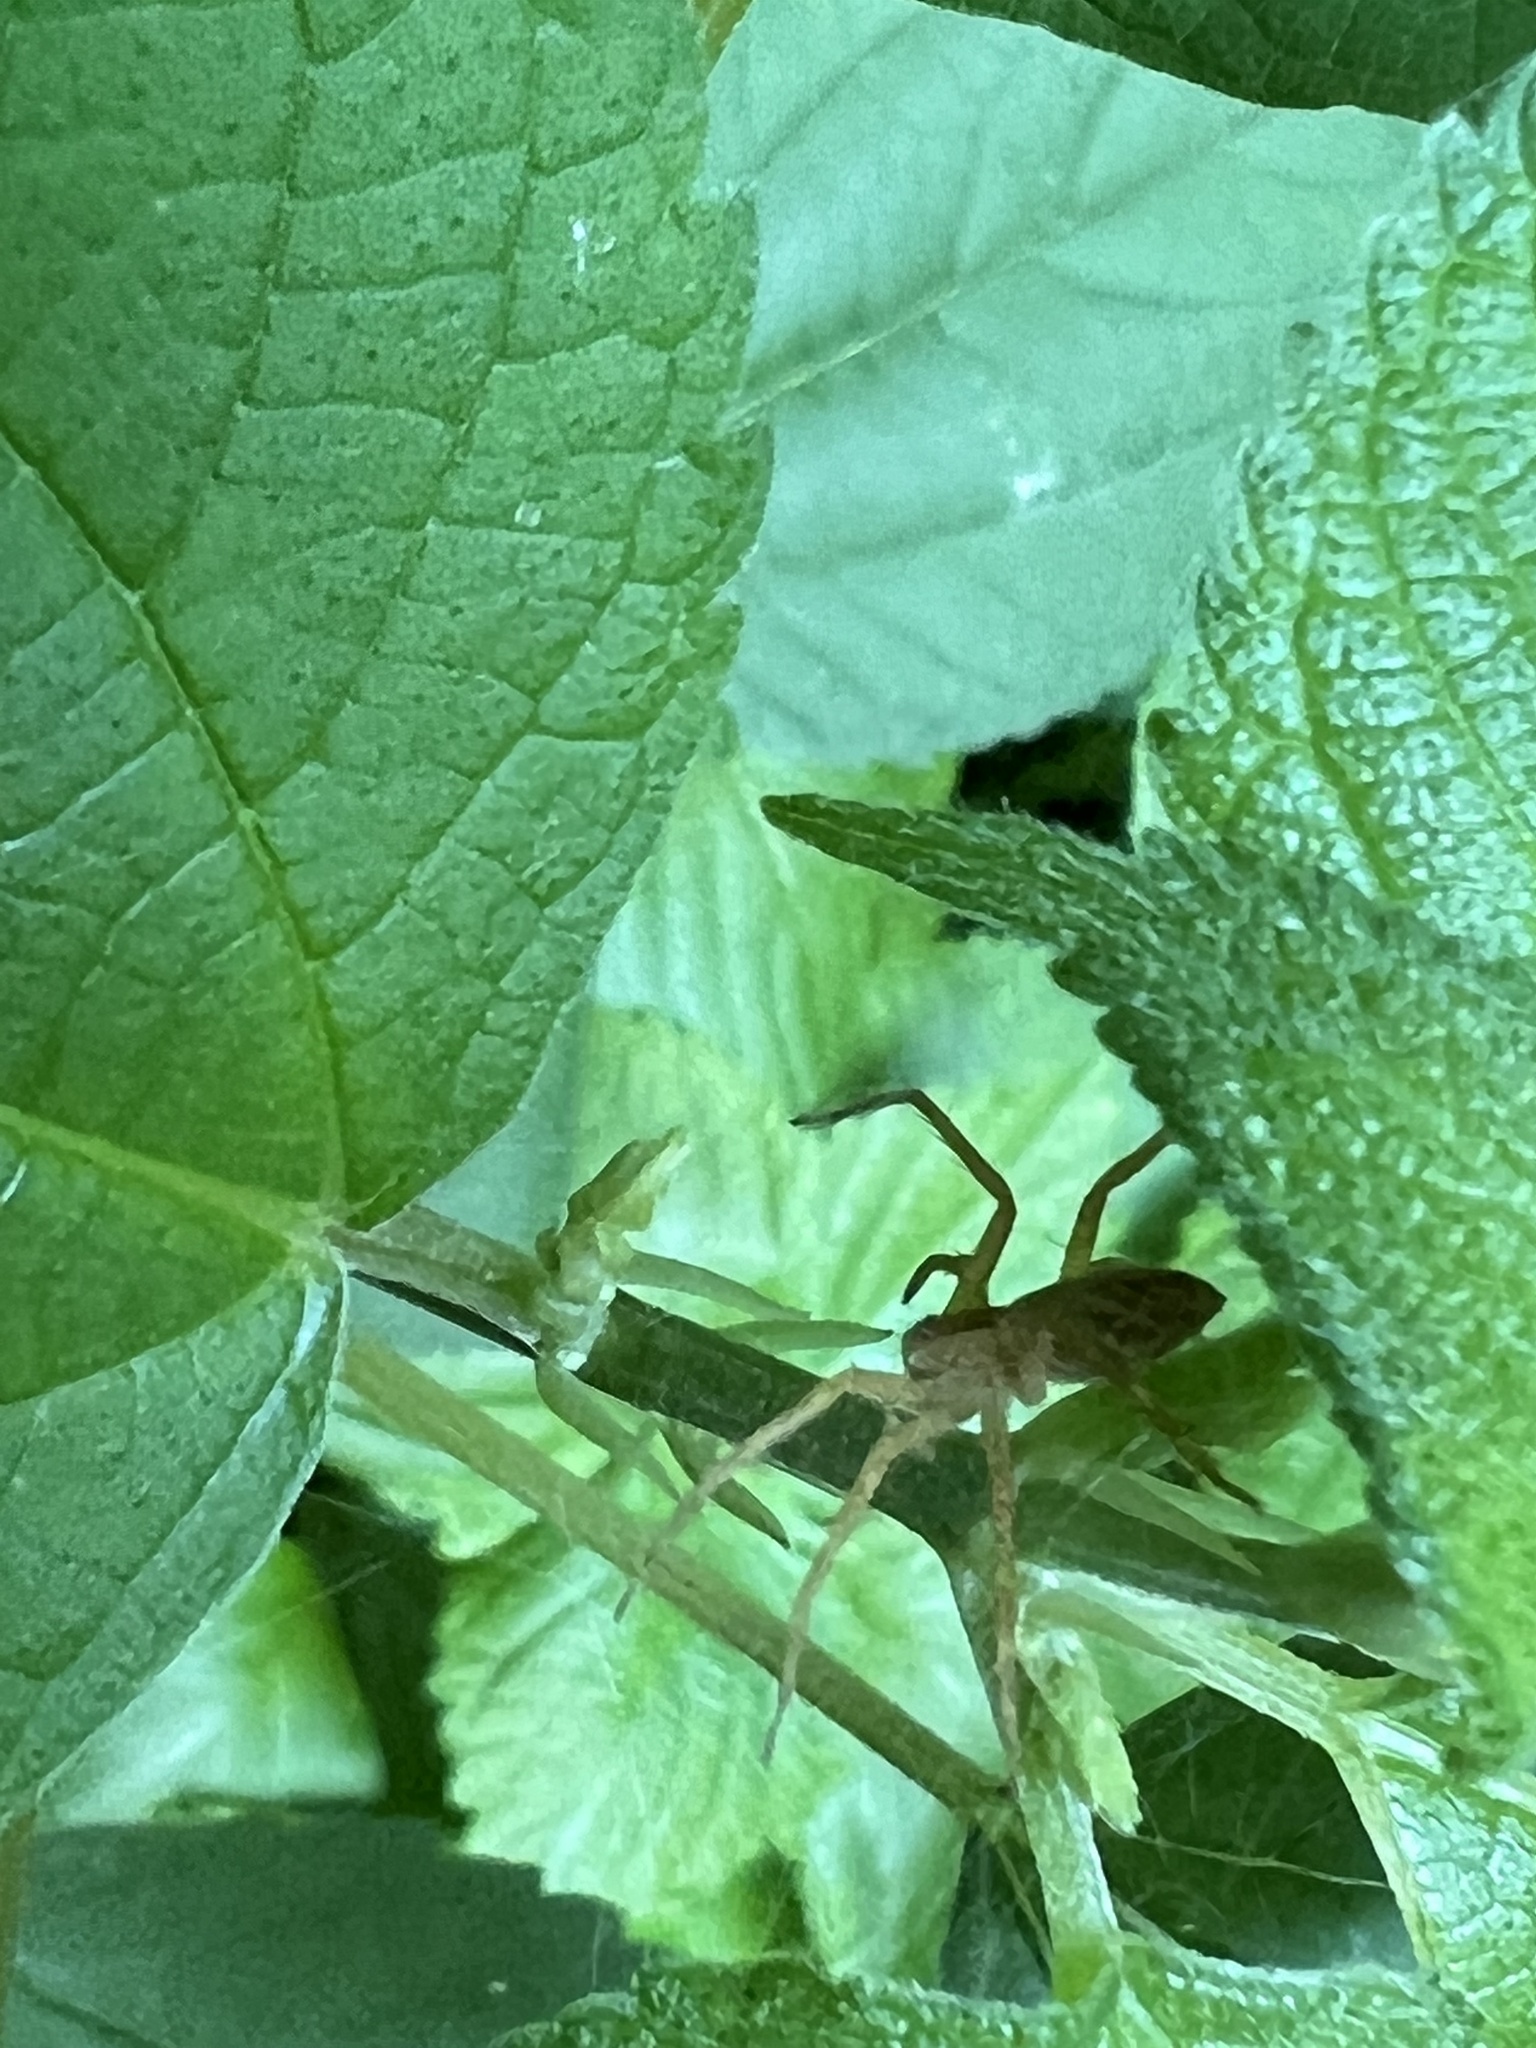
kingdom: Animalia
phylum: Arthropoda
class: Arachnida
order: Araneae
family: Pisauridae
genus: Pisaurina
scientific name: Pisaurina mira
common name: American nursery web spider
